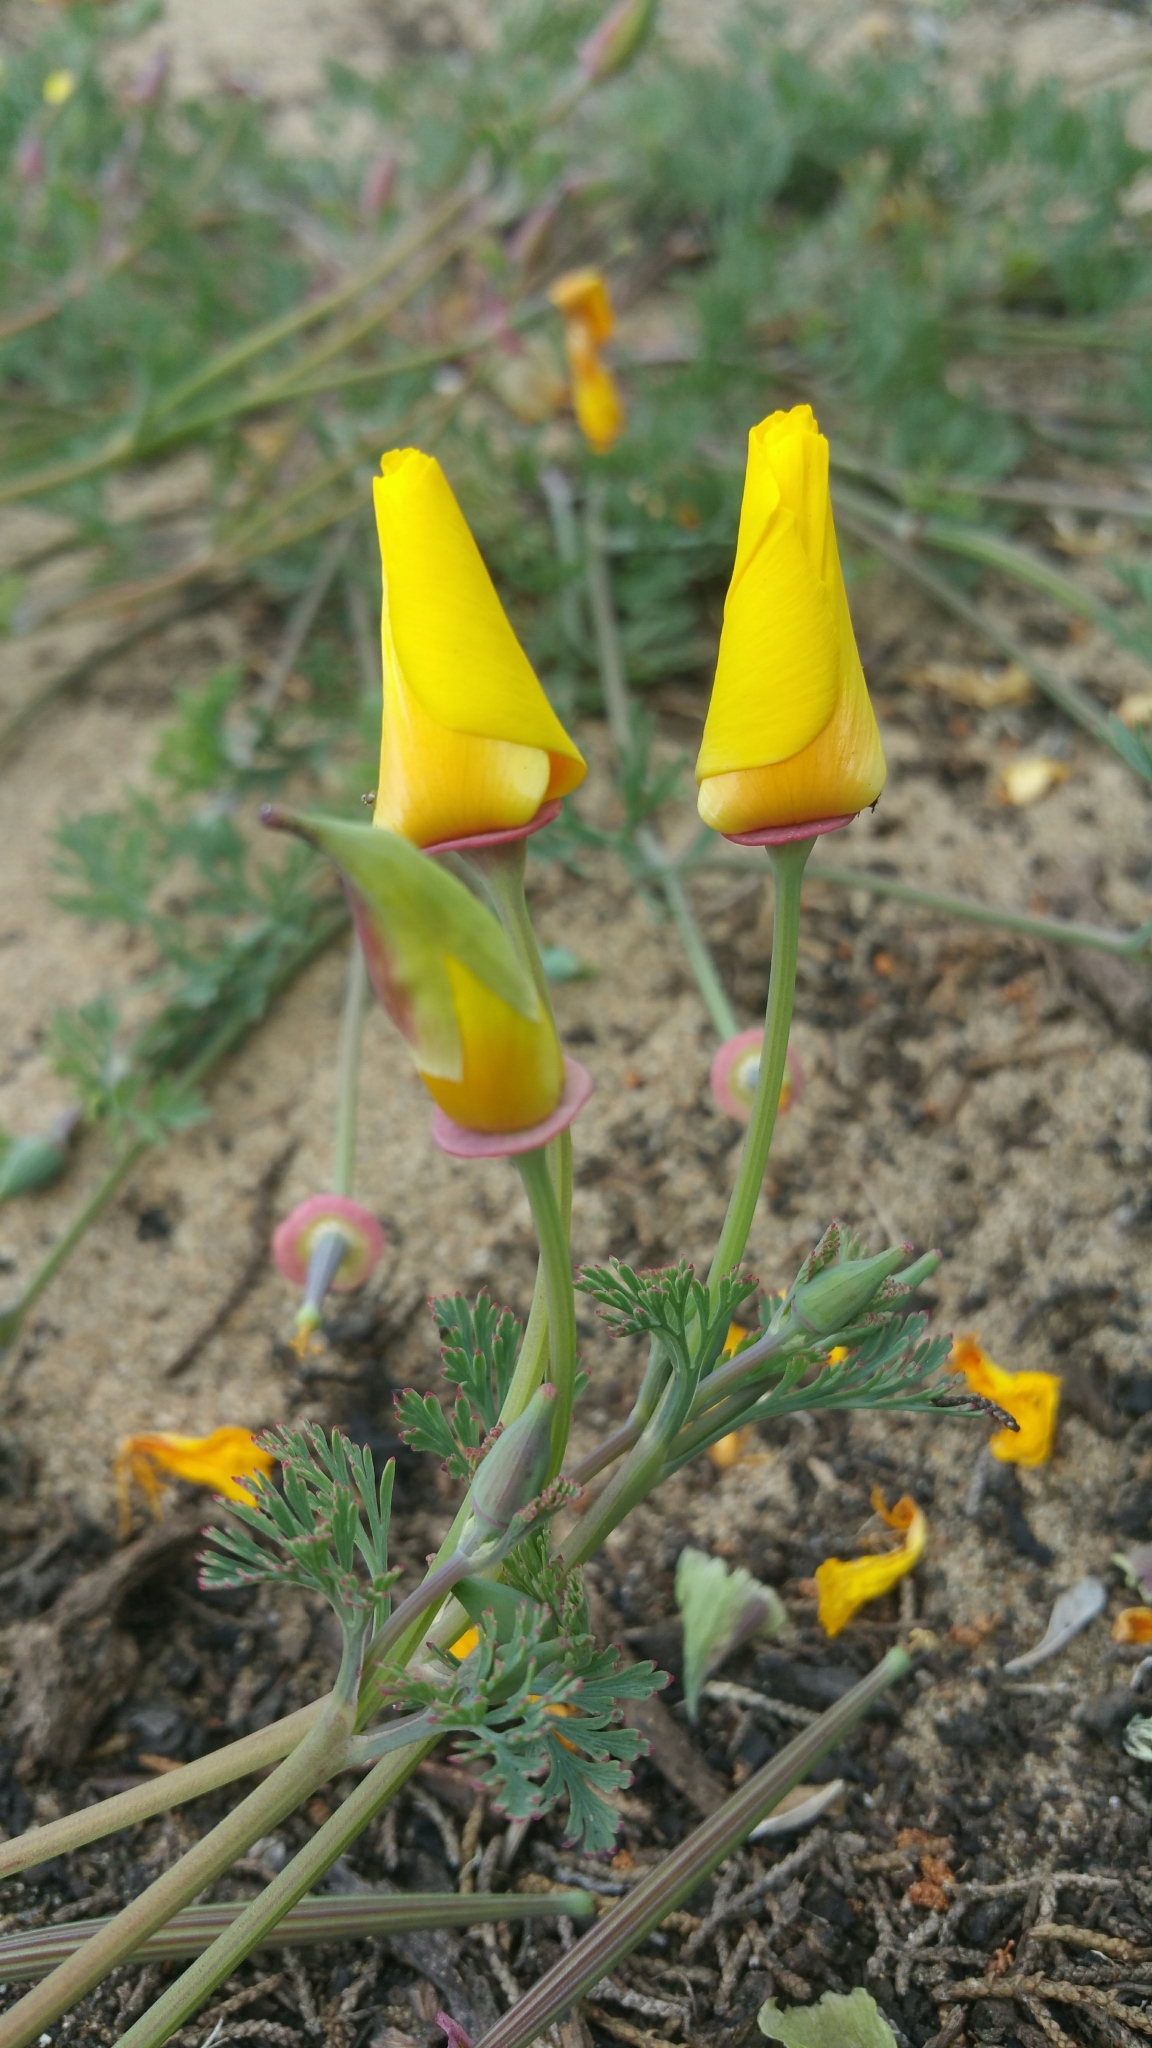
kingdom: Plantae
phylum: Tracheophyta
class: Magnoliopsida
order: Ranunculales
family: Papaveraceae
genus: Eschscholzia
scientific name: Eschscholzia californica
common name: California poppy
